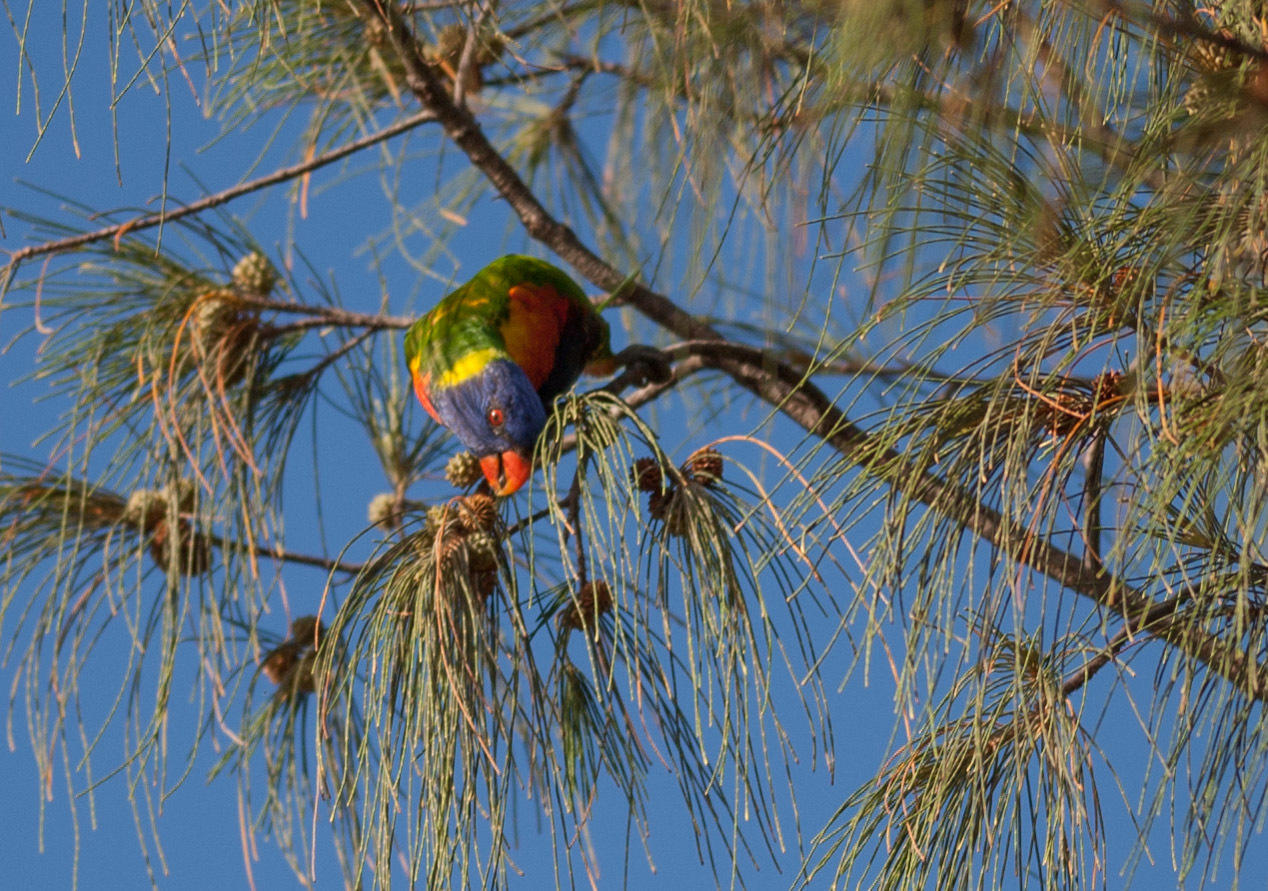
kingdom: Animalia
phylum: Chordata
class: Aves
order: Psittaciformes
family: Psittacidae
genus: Trichoglossus
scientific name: Trichoglossus haematodus
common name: Coconut lorikeet
